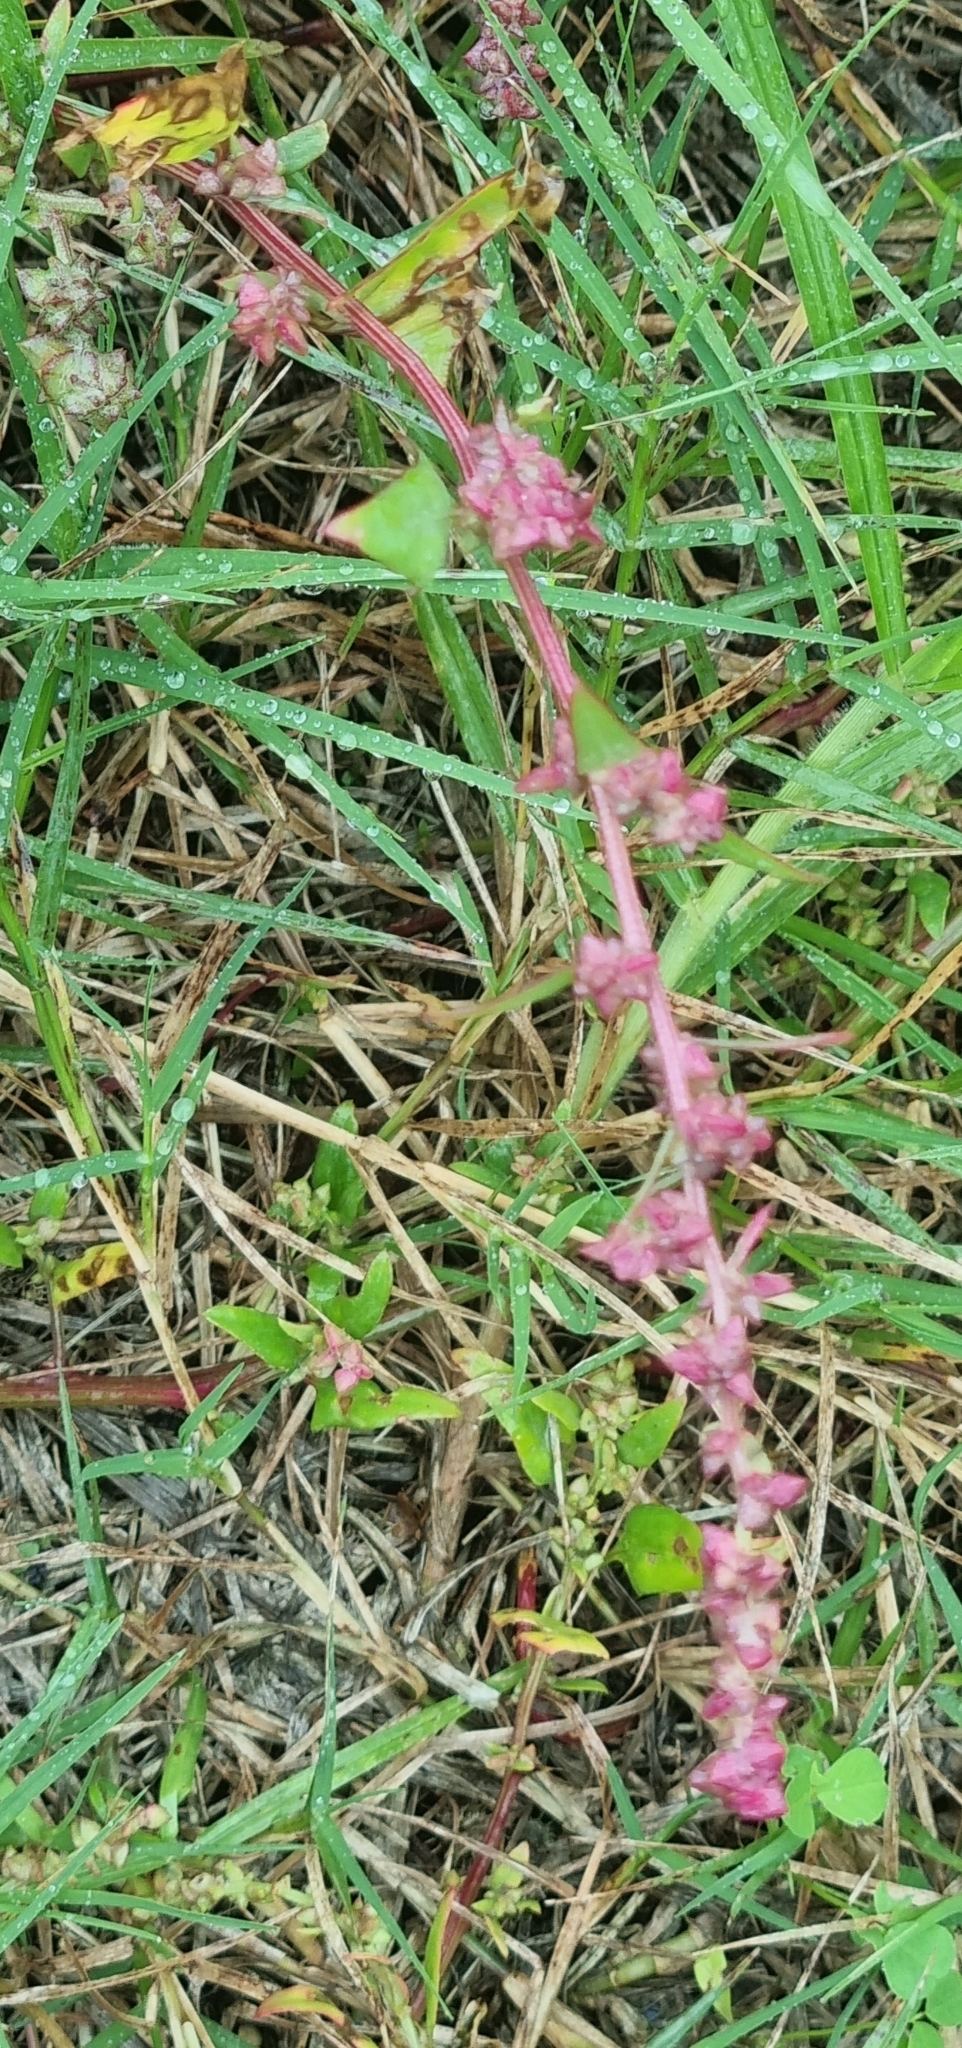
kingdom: Plantae
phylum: Tracheophyta
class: Magnoliopsida
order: Ranunculales
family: Papaveraceae
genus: Fumaria
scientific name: Fumaria muralis
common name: Common ramping-fumitory
